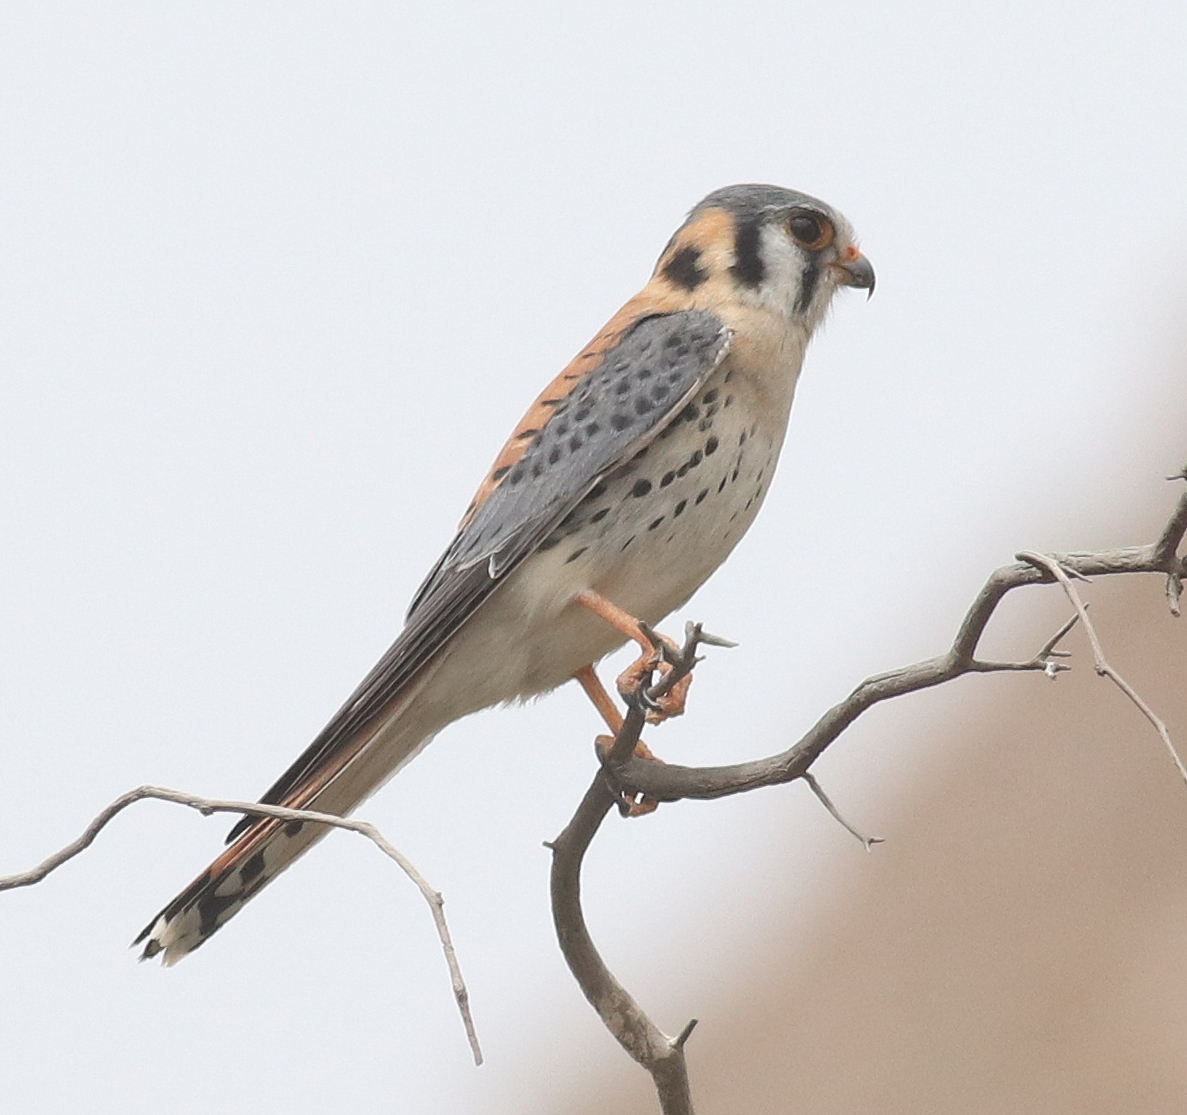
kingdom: Animalia
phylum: Chordata
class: Aves
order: Falconiformes
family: Falconidae
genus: Falco
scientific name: Falco sparverius
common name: American kestrel
